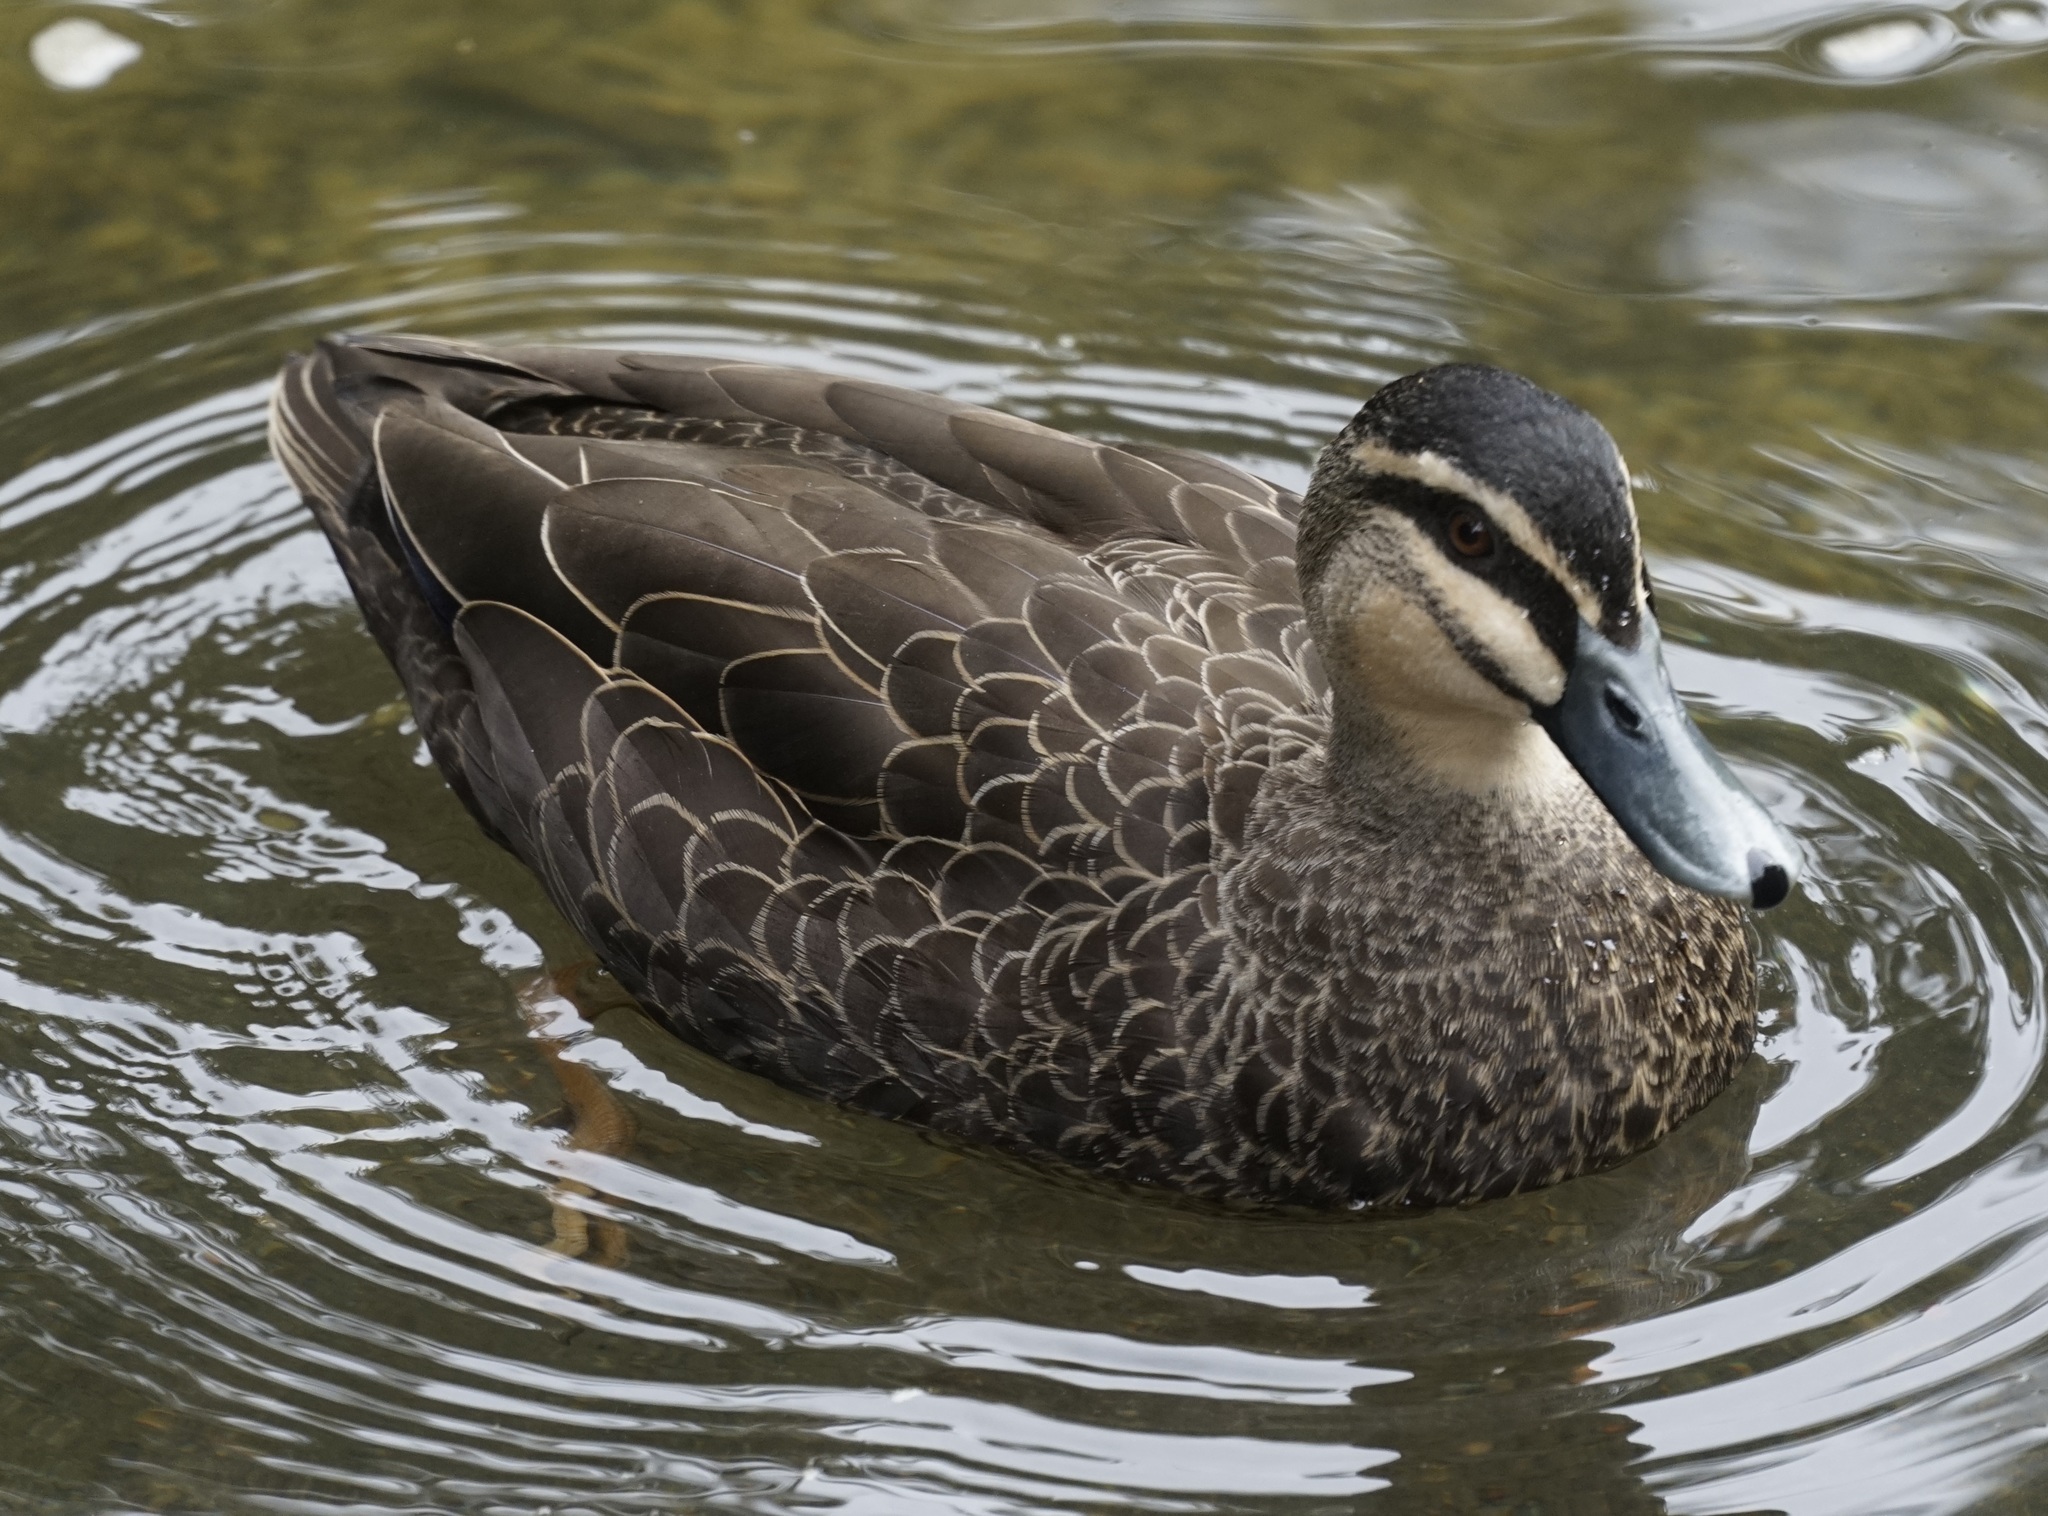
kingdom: Animalia
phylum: Chordata
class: Aves
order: Anseriformes
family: Anatidae
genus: Anas
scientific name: Anas
